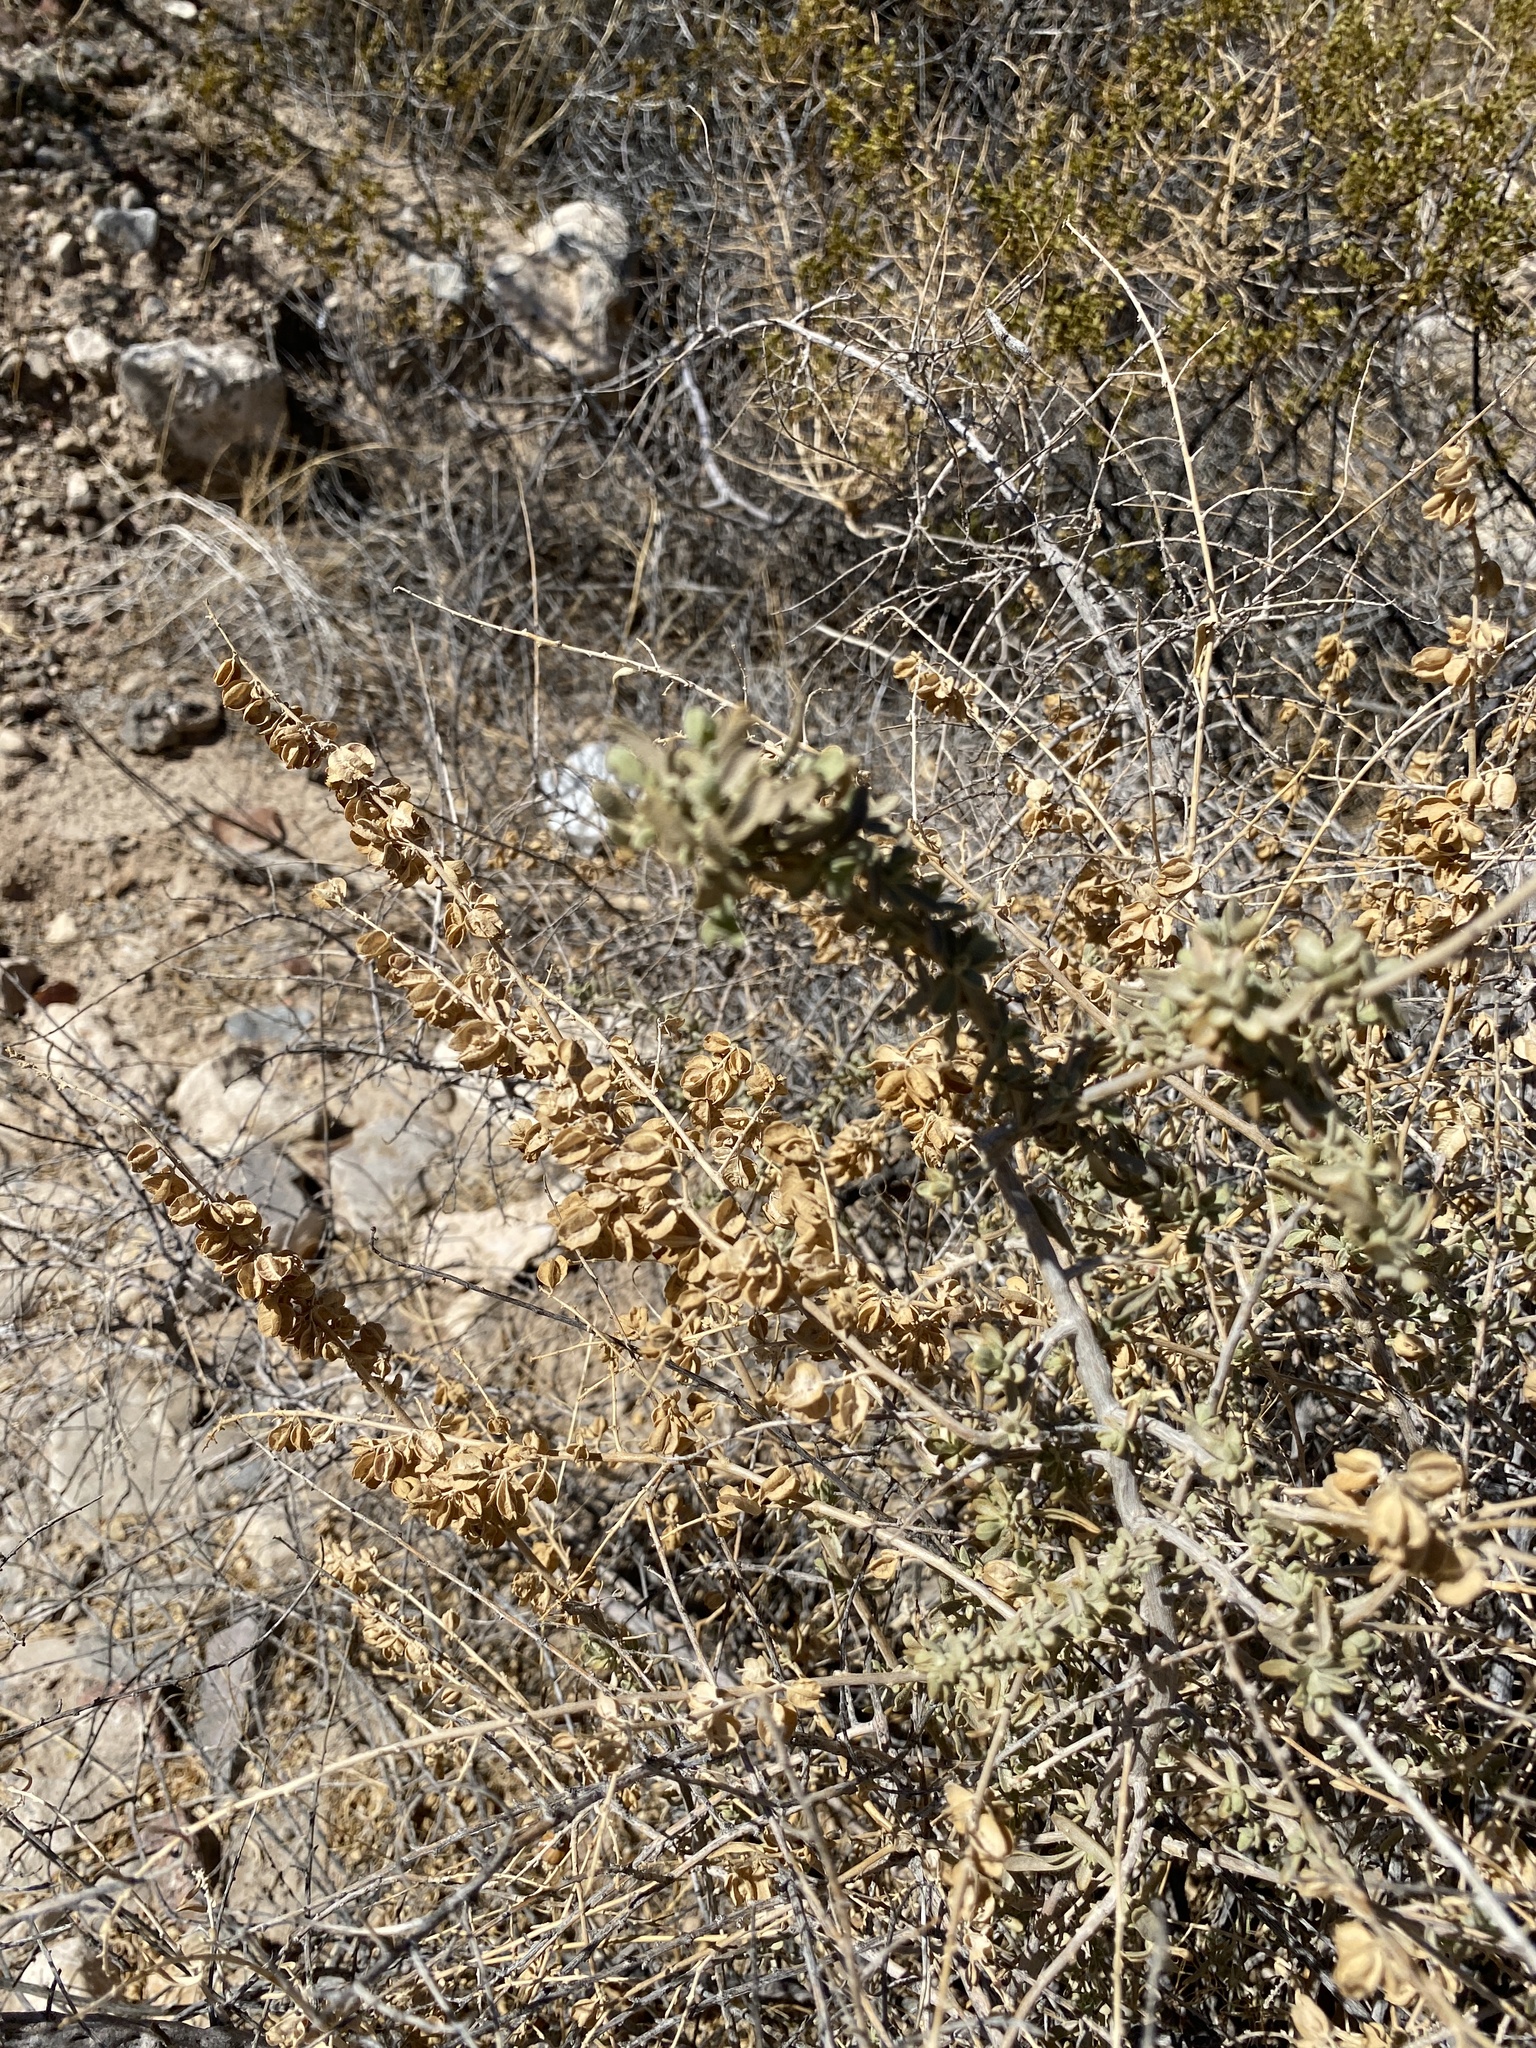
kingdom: Plantae
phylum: Tracheophyta
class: Magnoliopsida
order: Caryophyllales
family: Amaranthaceae
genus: Atriplex
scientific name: Atriplex canescens
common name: Four-wing saltbush
